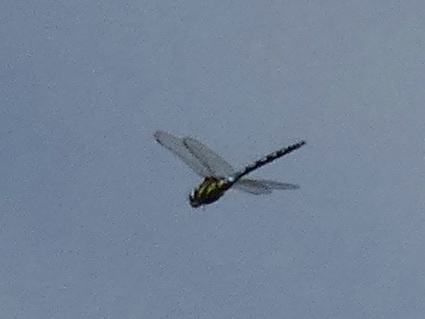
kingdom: Animalia
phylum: Arthropoda
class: Insecta
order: Odonata
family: Aeshnidae
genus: Aeshna
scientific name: Aeshna mixta
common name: Migrant hawker
